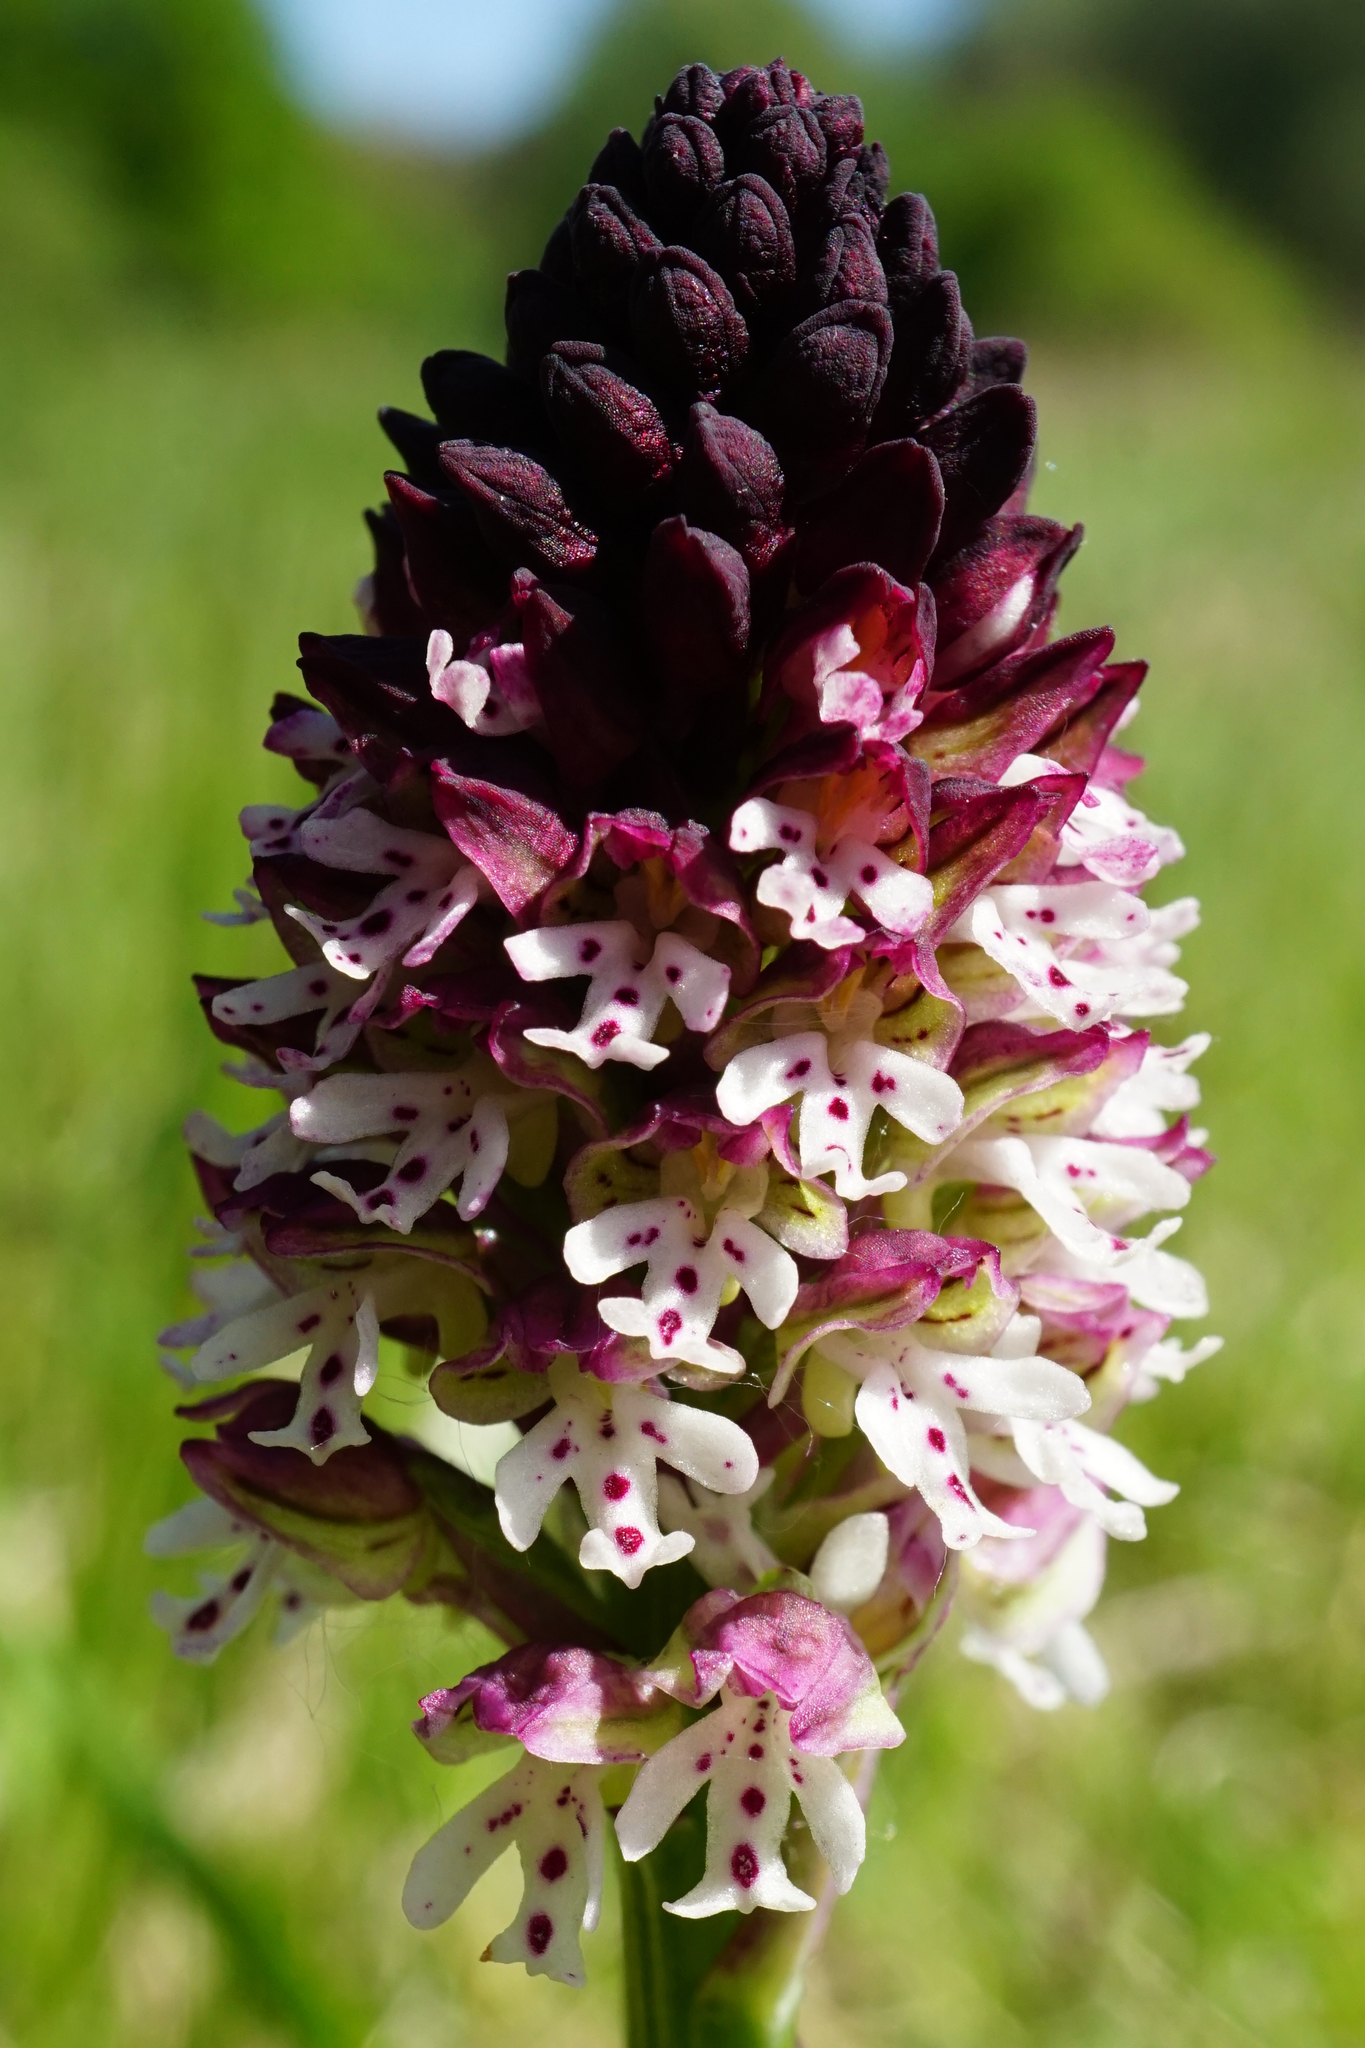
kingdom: Plantae
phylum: Tracheophyta
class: Liliopsida
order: Asparagales
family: Orchidaceae
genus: Neotinea
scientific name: Neotinea ustulata
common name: Burnt orchid
